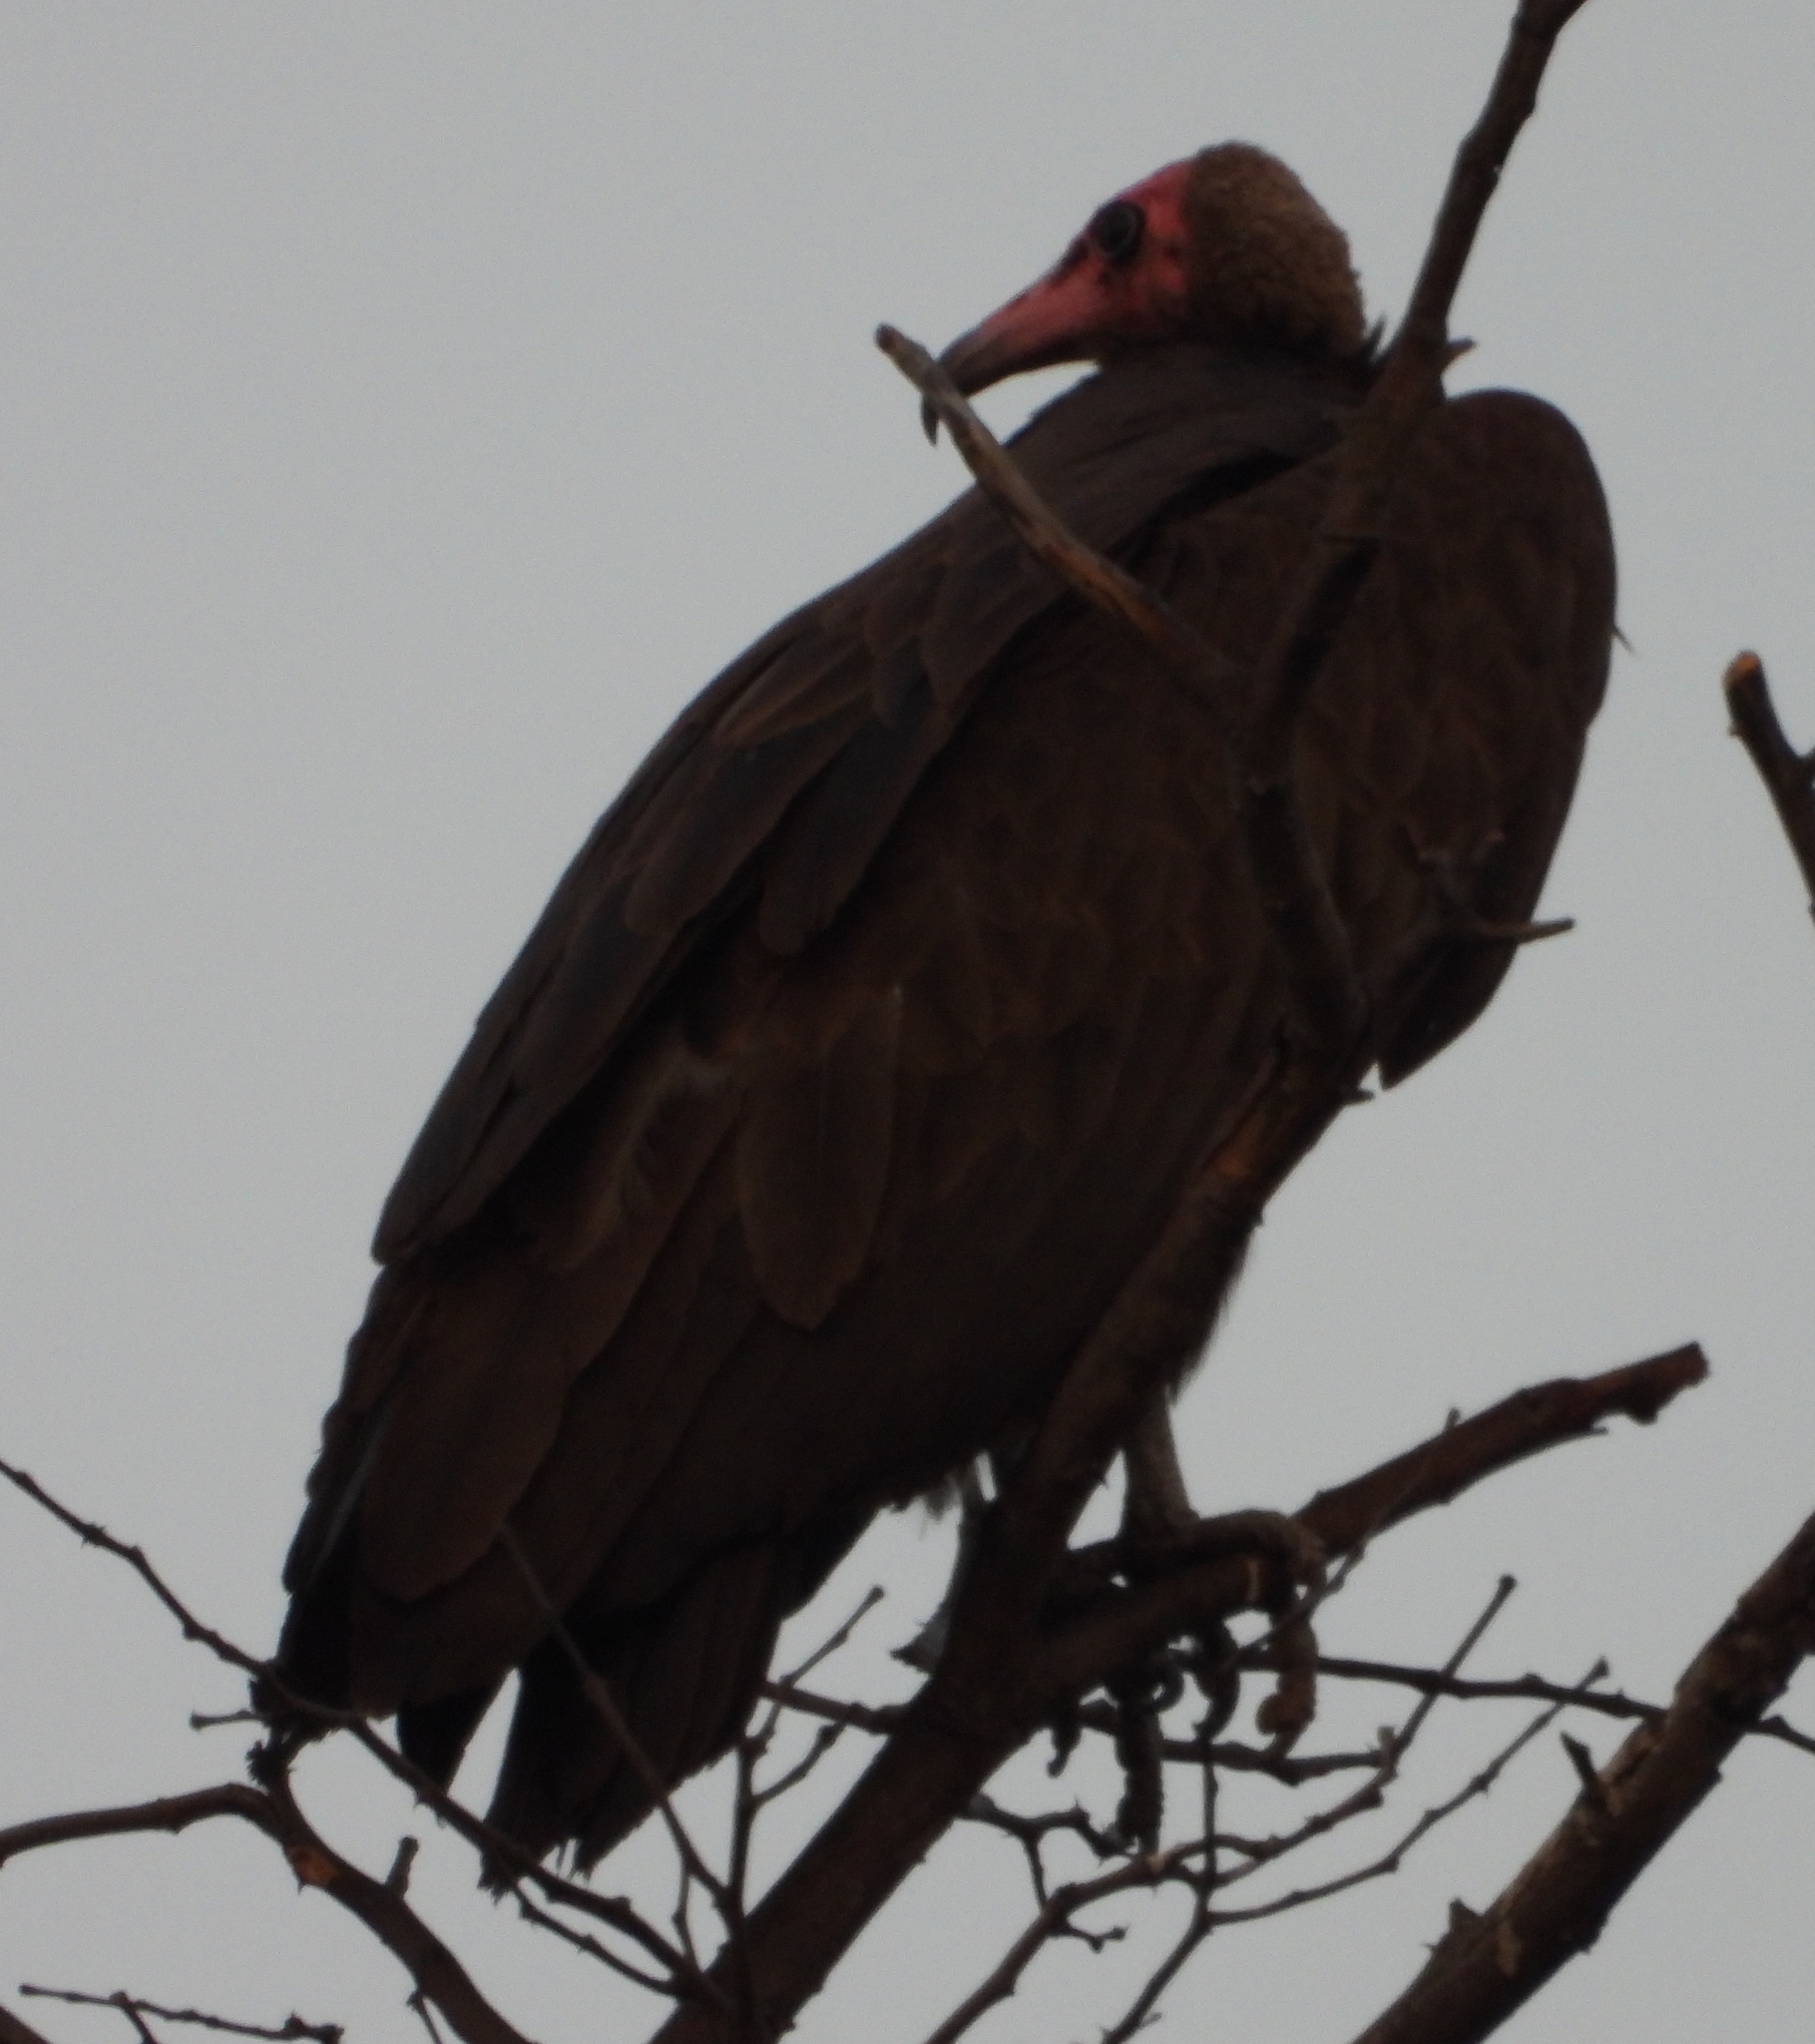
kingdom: Animalia
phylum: Chordata
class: Aves
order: Accipitriformes
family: Accipitridae
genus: Necrosyrtes
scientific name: Necrosyrtes monachus
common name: Hooded vulture
